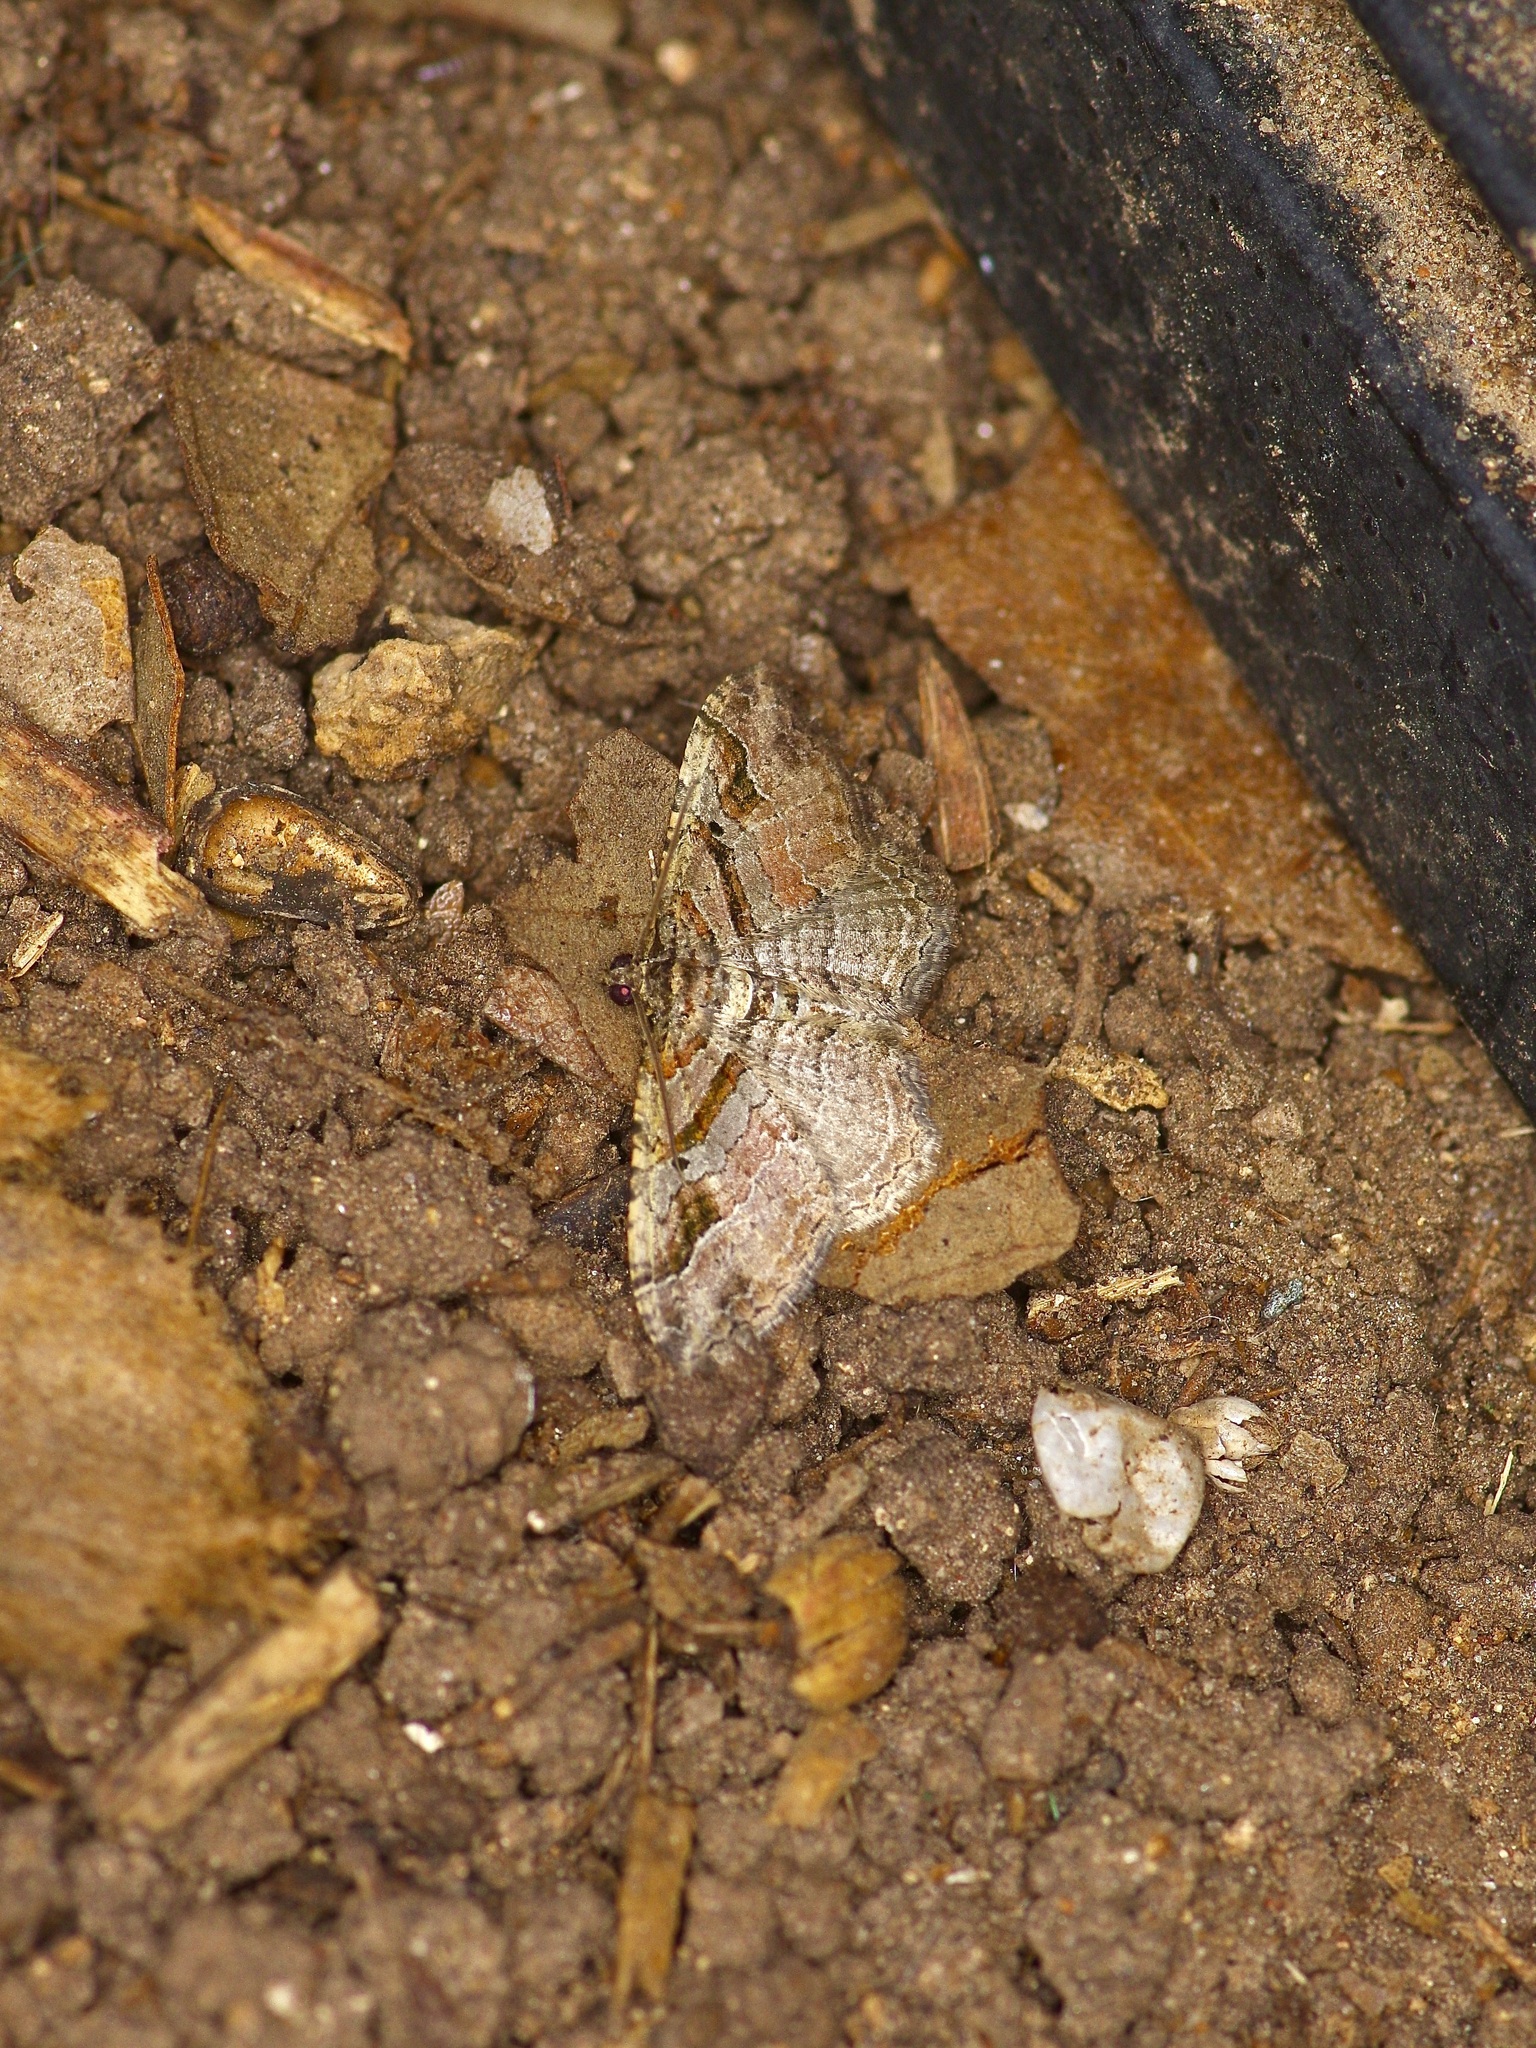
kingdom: Animalia
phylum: Arthropoda
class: Insecta
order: Lepidoptera
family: Geometridae
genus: Costaconvexa
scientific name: Costaconvexa centrostrigaria
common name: Bent-line carpet
